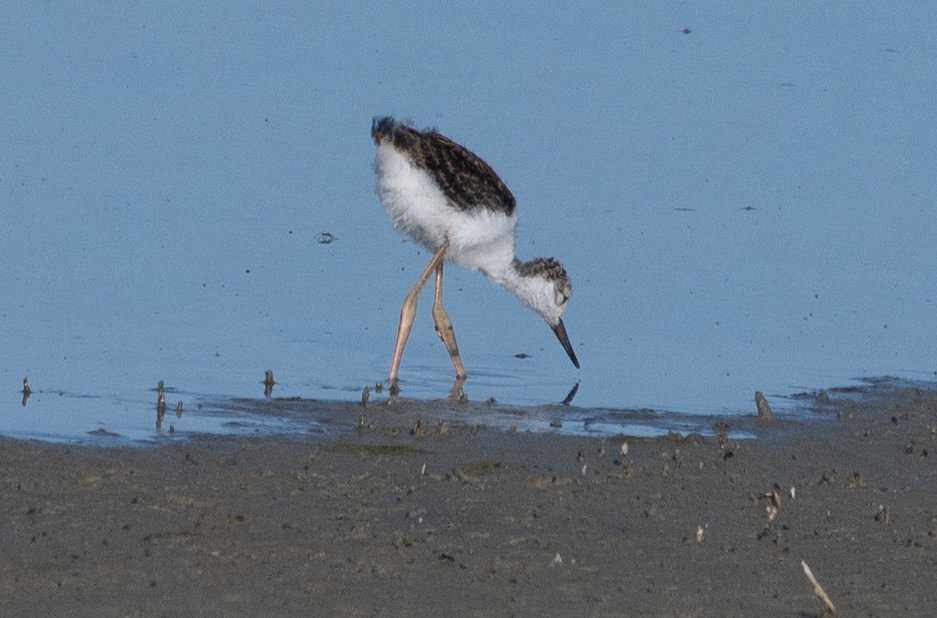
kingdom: Animalia
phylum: Chordata
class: Aves
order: Charadriiformes
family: Recurvirostridae
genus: Himantopus
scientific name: Himantopus mexicanus
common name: Black-necked stilt
